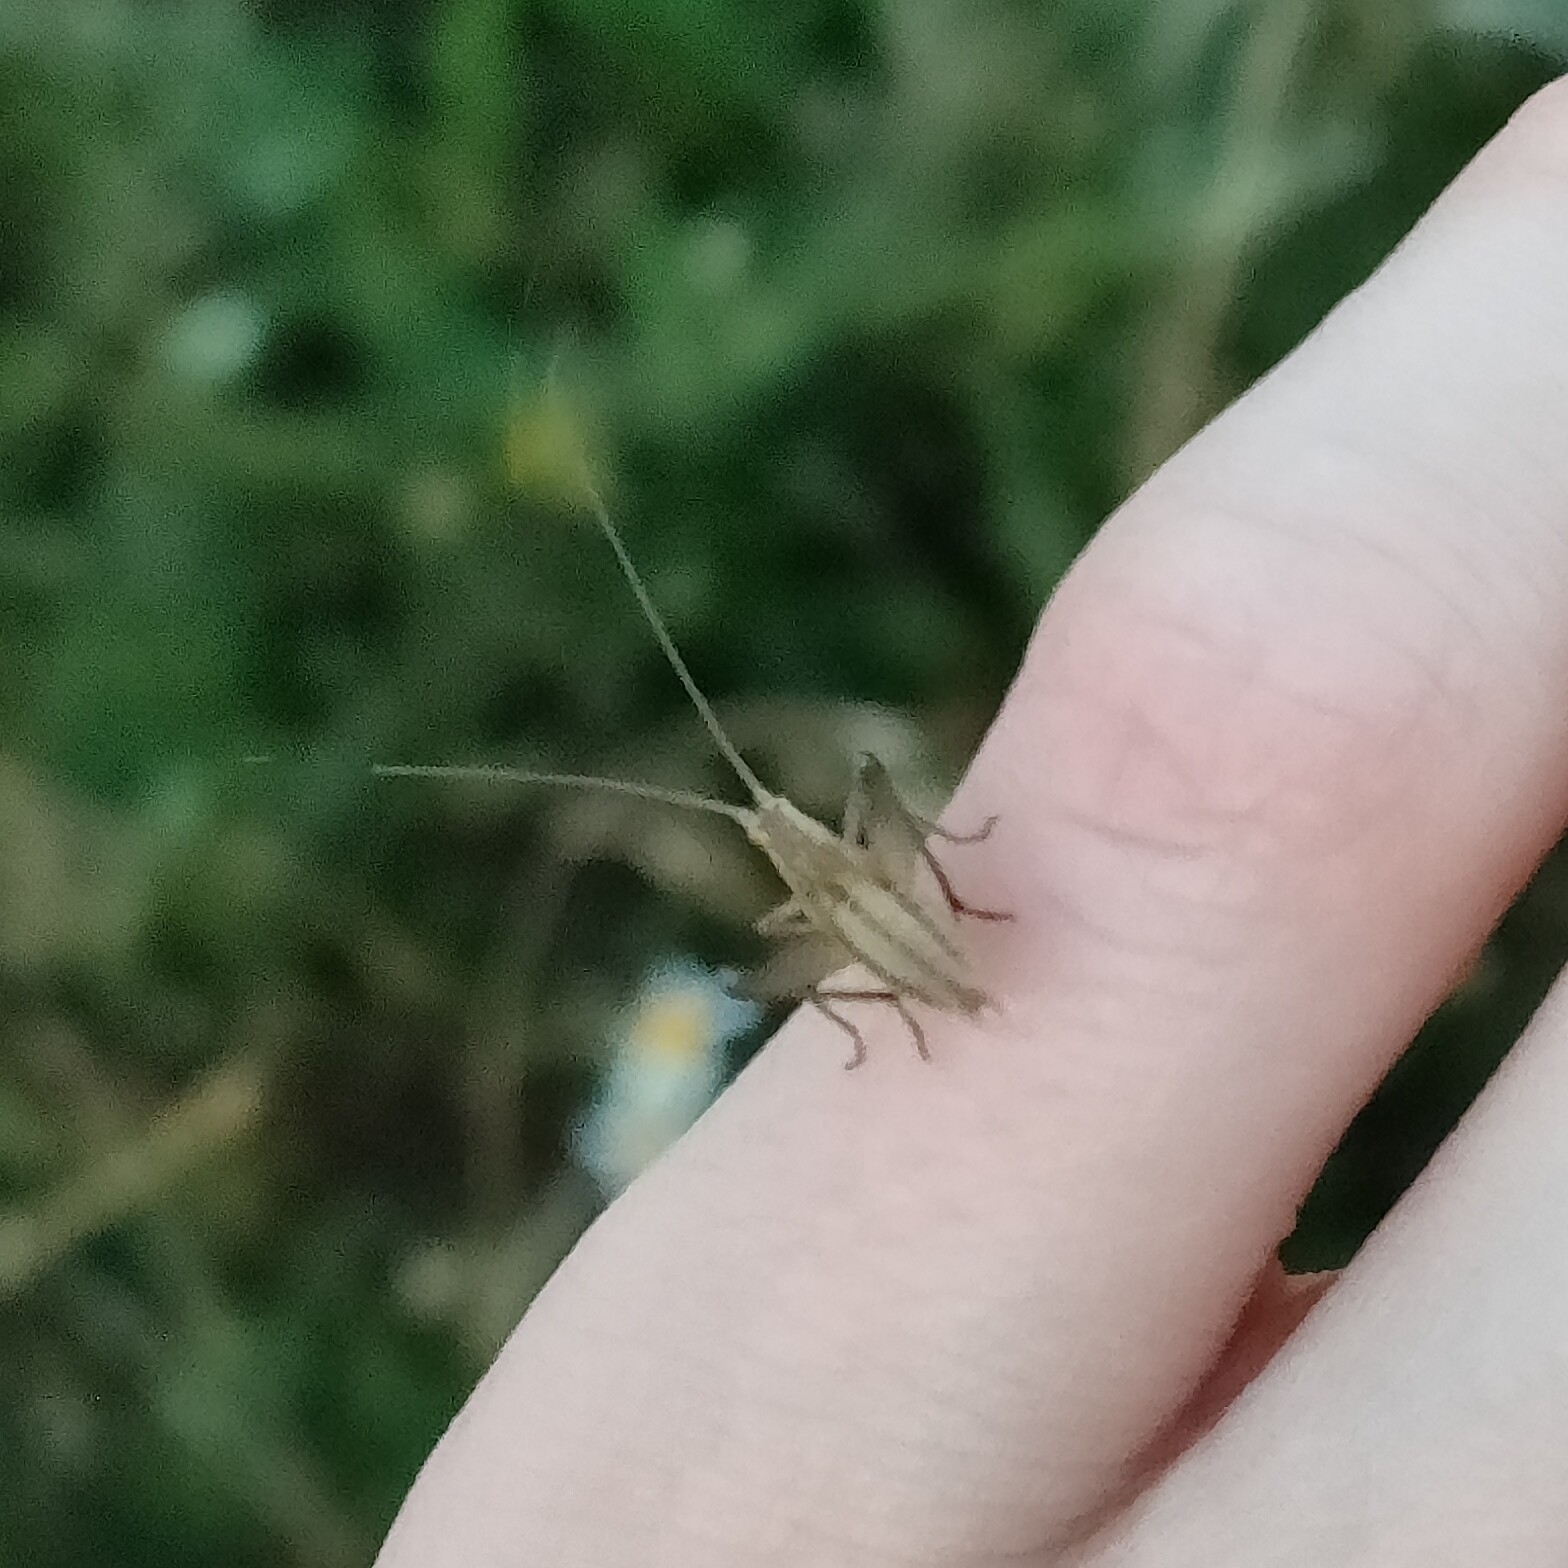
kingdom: Animalia
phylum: Arthropoda
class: Insecta
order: Orthoptera
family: Gryllidae
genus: Oecanthus
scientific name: Oecanthus pellucens
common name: Tree-cricket
